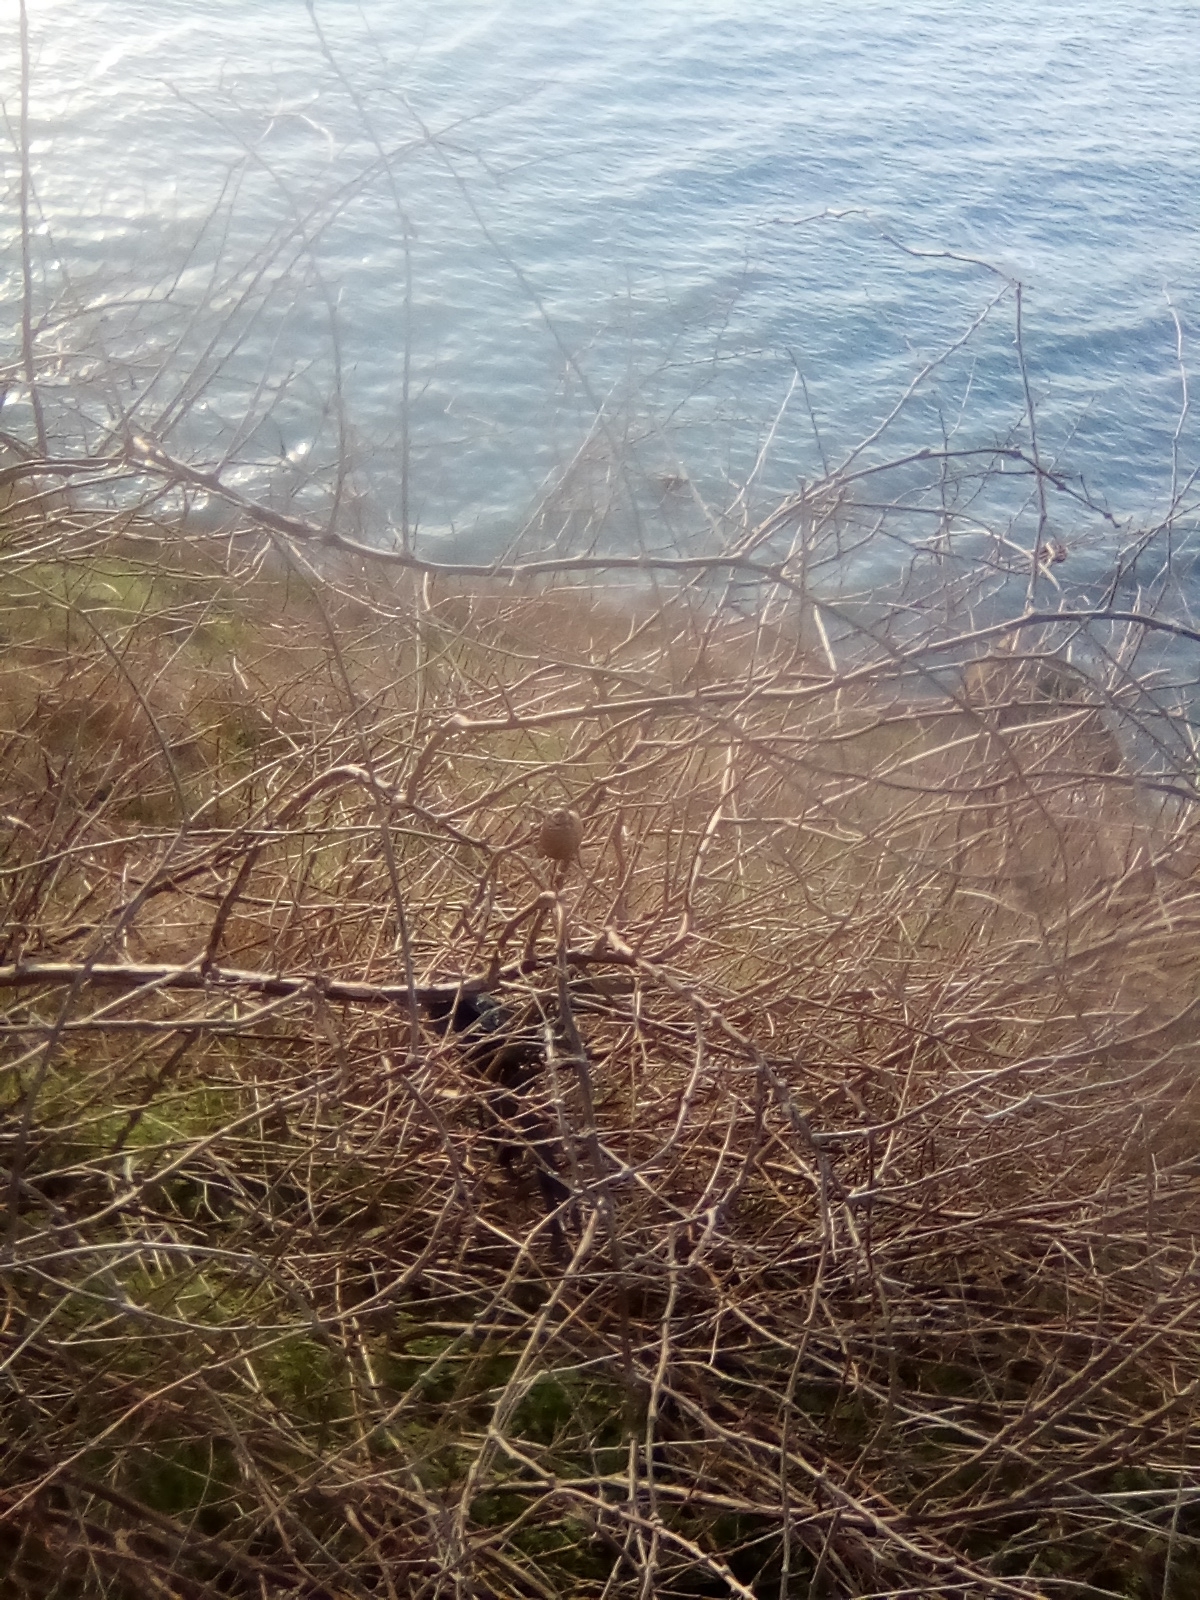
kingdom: Animalia
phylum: Arthropoda
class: Insecta
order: Mantodea
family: Mantidae
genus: Hierodula
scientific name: Hierodula transcaucasica
